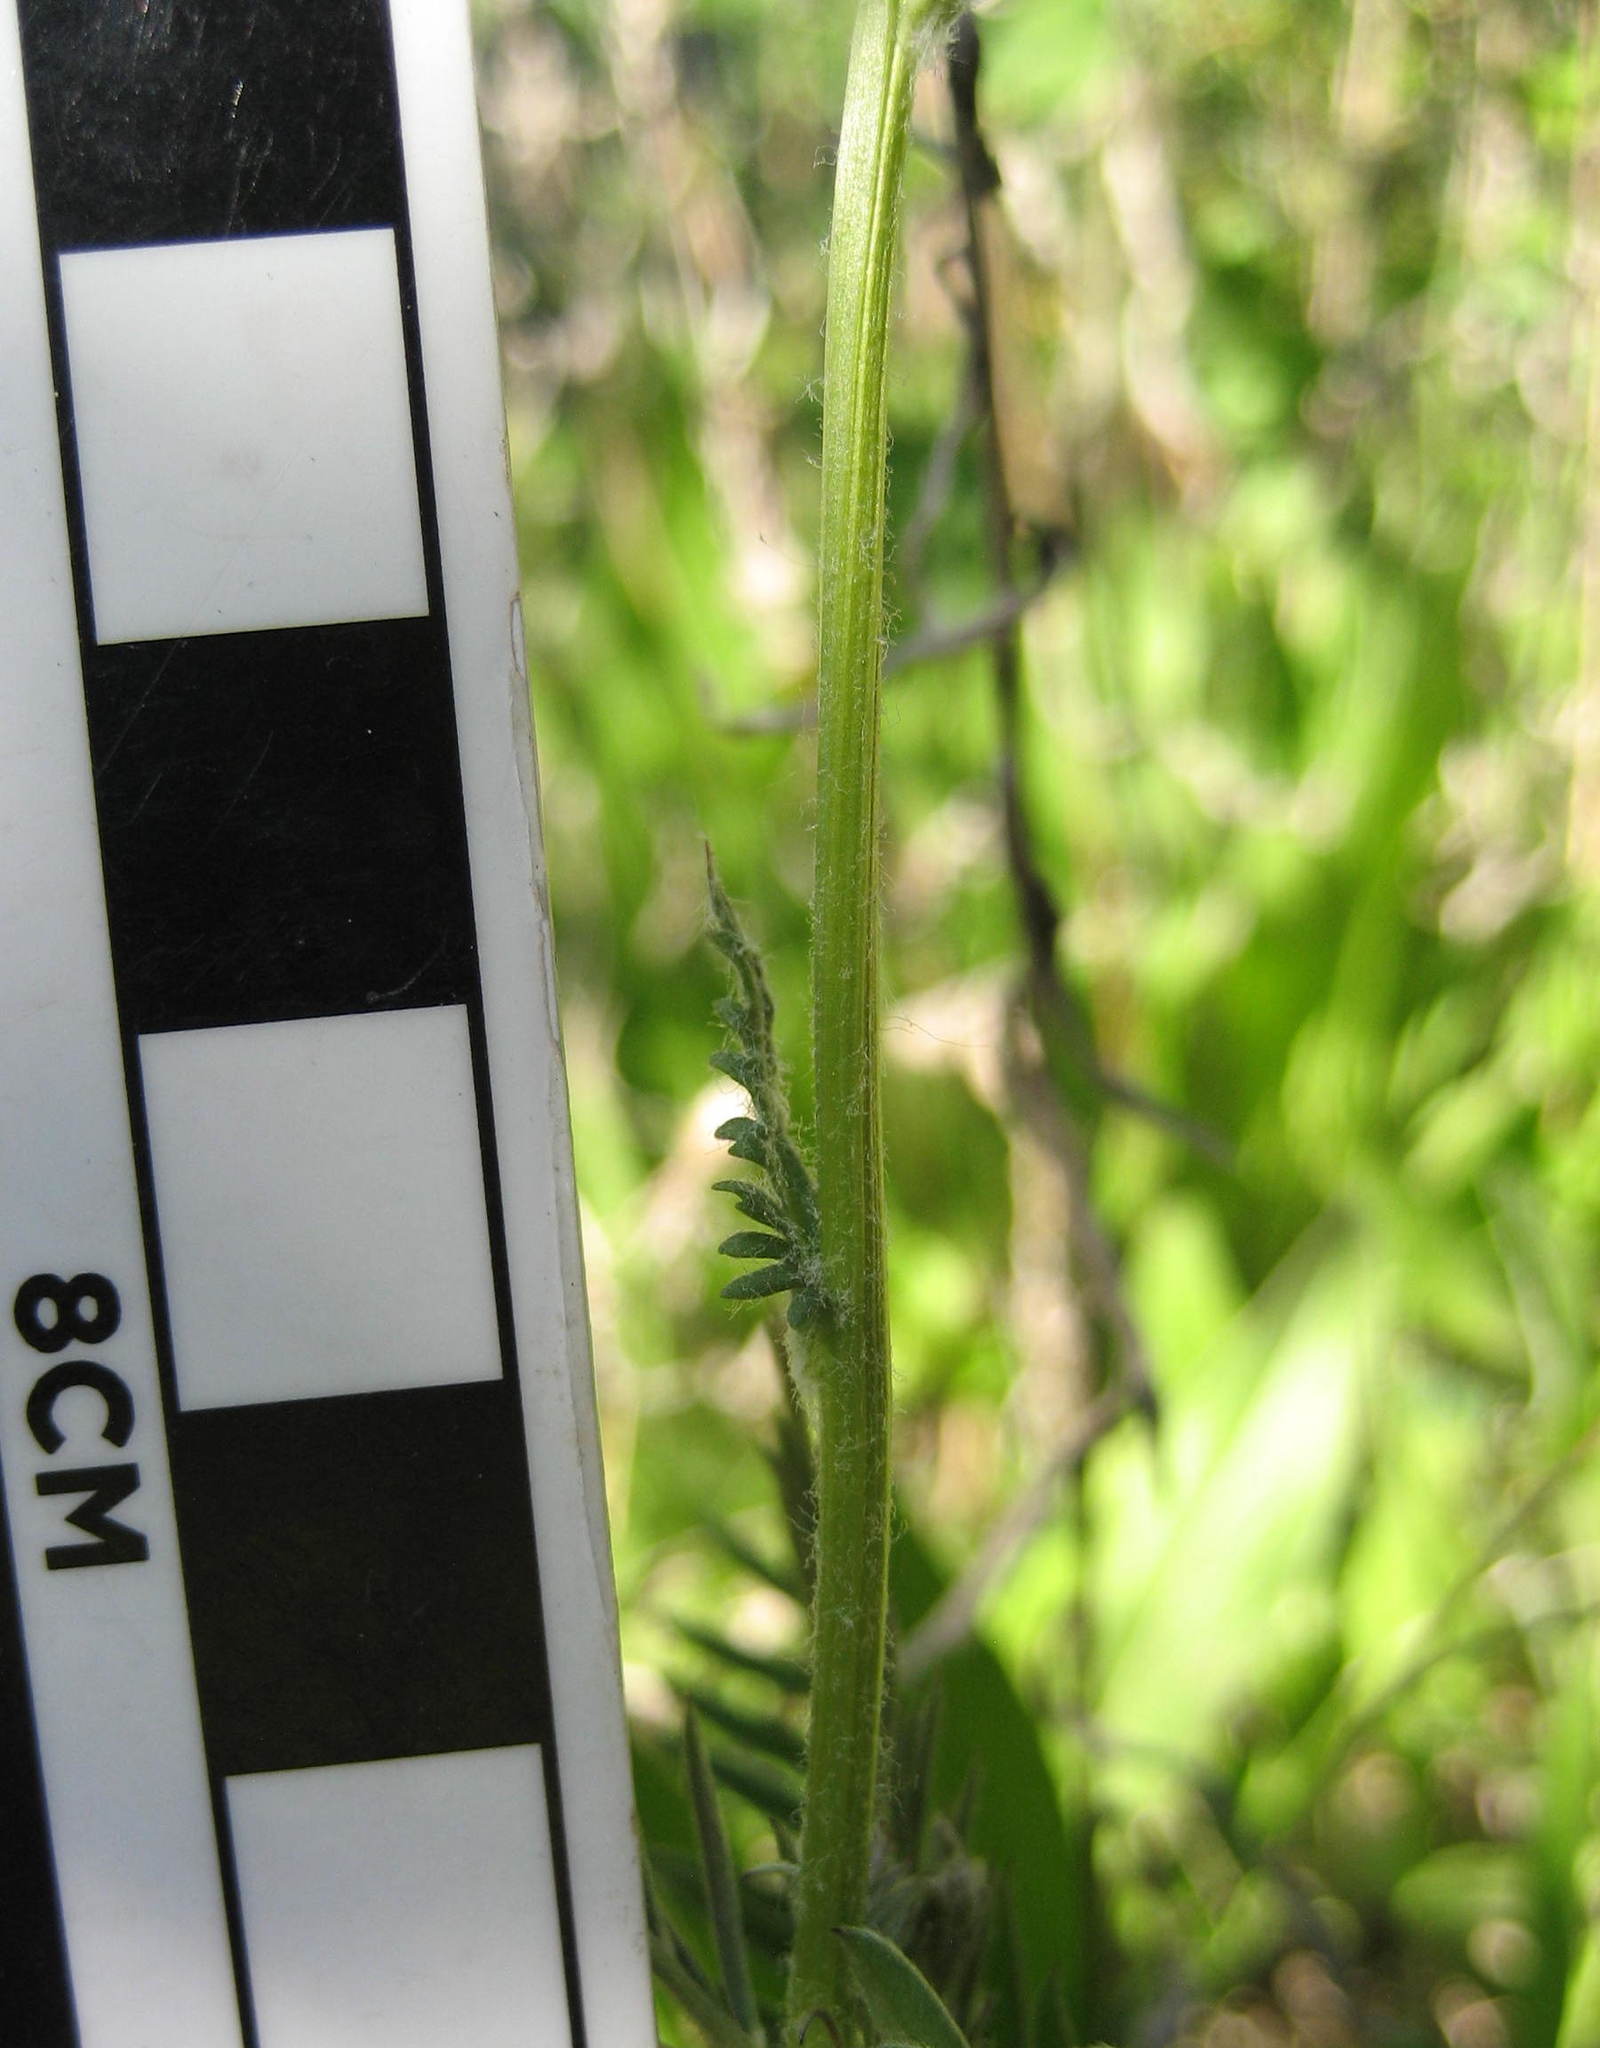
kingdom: Plantae
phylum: Tracheophyta
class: Magnoliopsida
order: Asterales
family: Asteraceae
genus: Packera
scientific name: Packera paupercula
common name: Balsam groundsel
